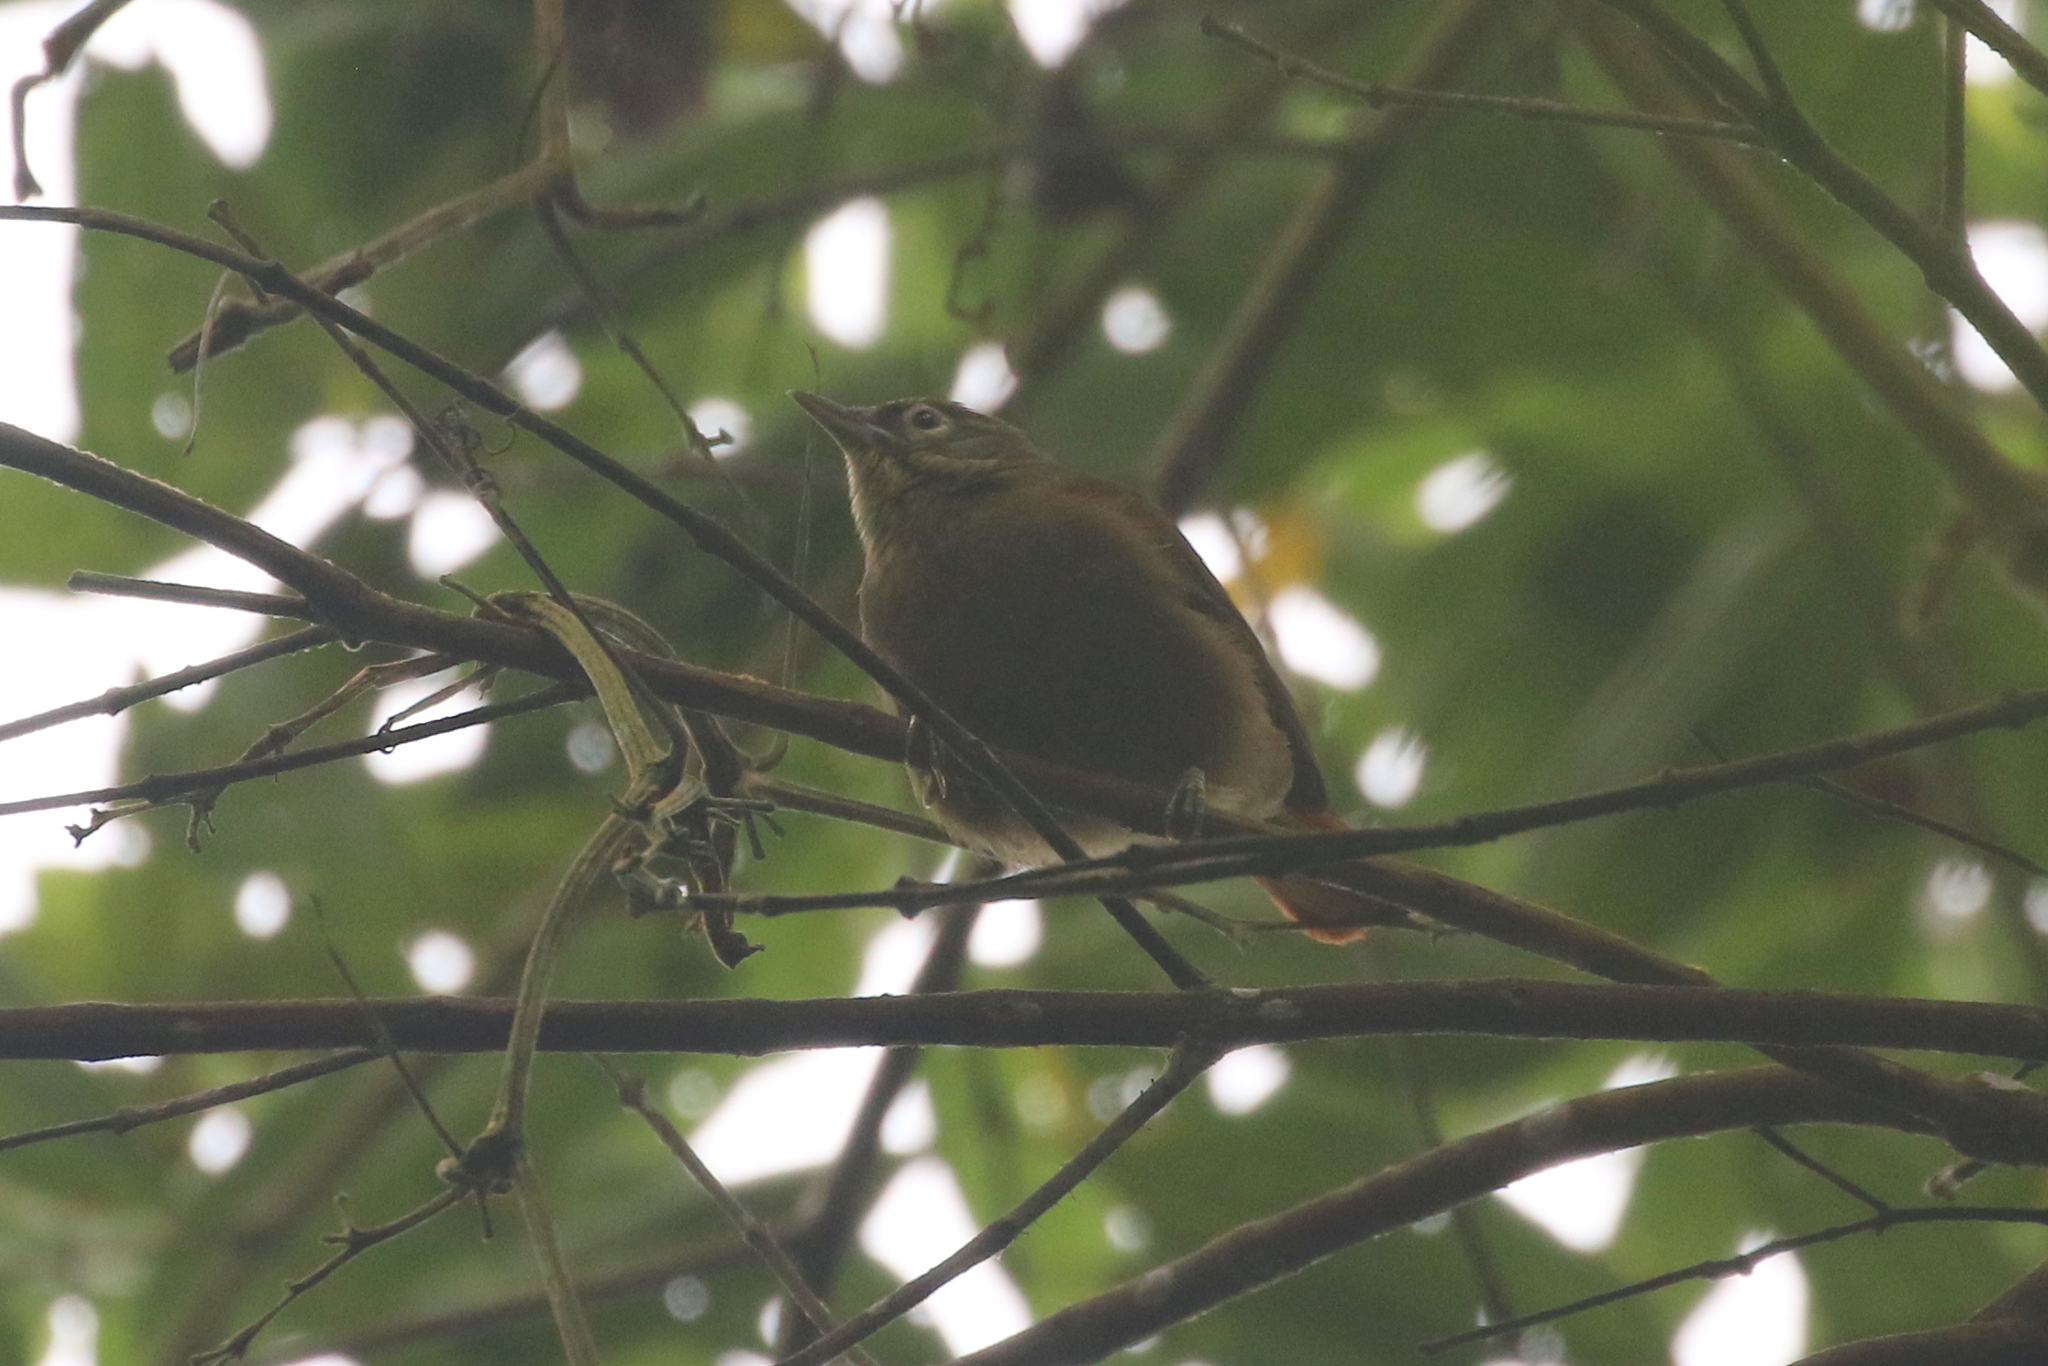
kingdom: Animalia
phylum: Chordata
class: Aves
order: Passeriformes
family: Furnariidae
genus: Anabacerthia
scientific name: Anabacerthia striaticollis
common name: Montane foliage-gleaner
